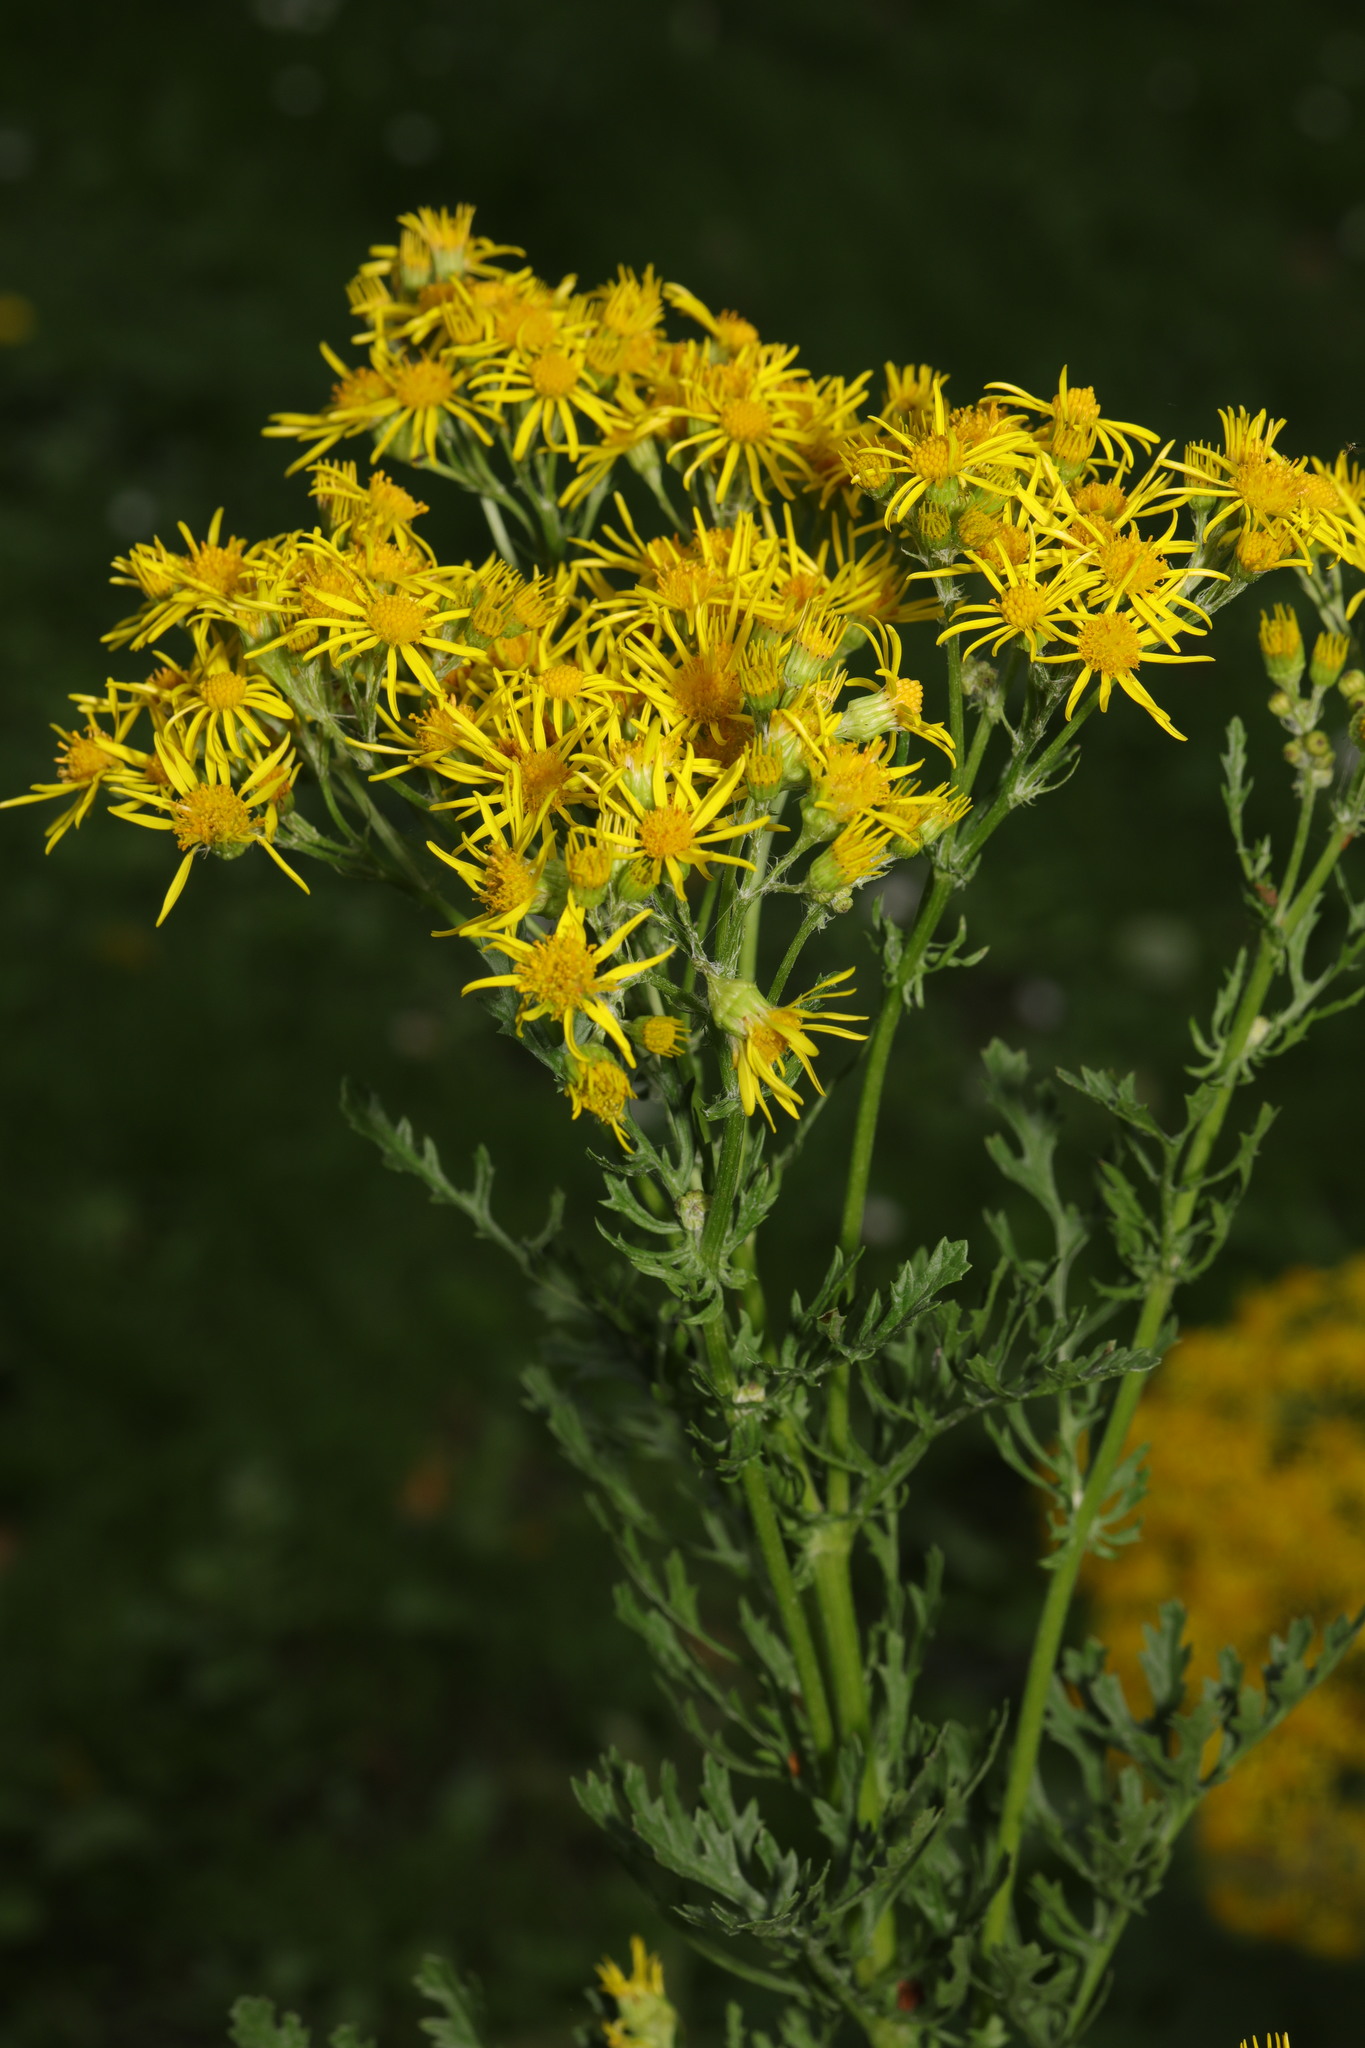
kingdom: Plantae
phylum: Tracheophyta
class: Magnoliopsida
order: Asterales
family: Asteraceae
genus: Jacobaea
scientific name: Jacobaea vulgaris
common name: Stinking willie
